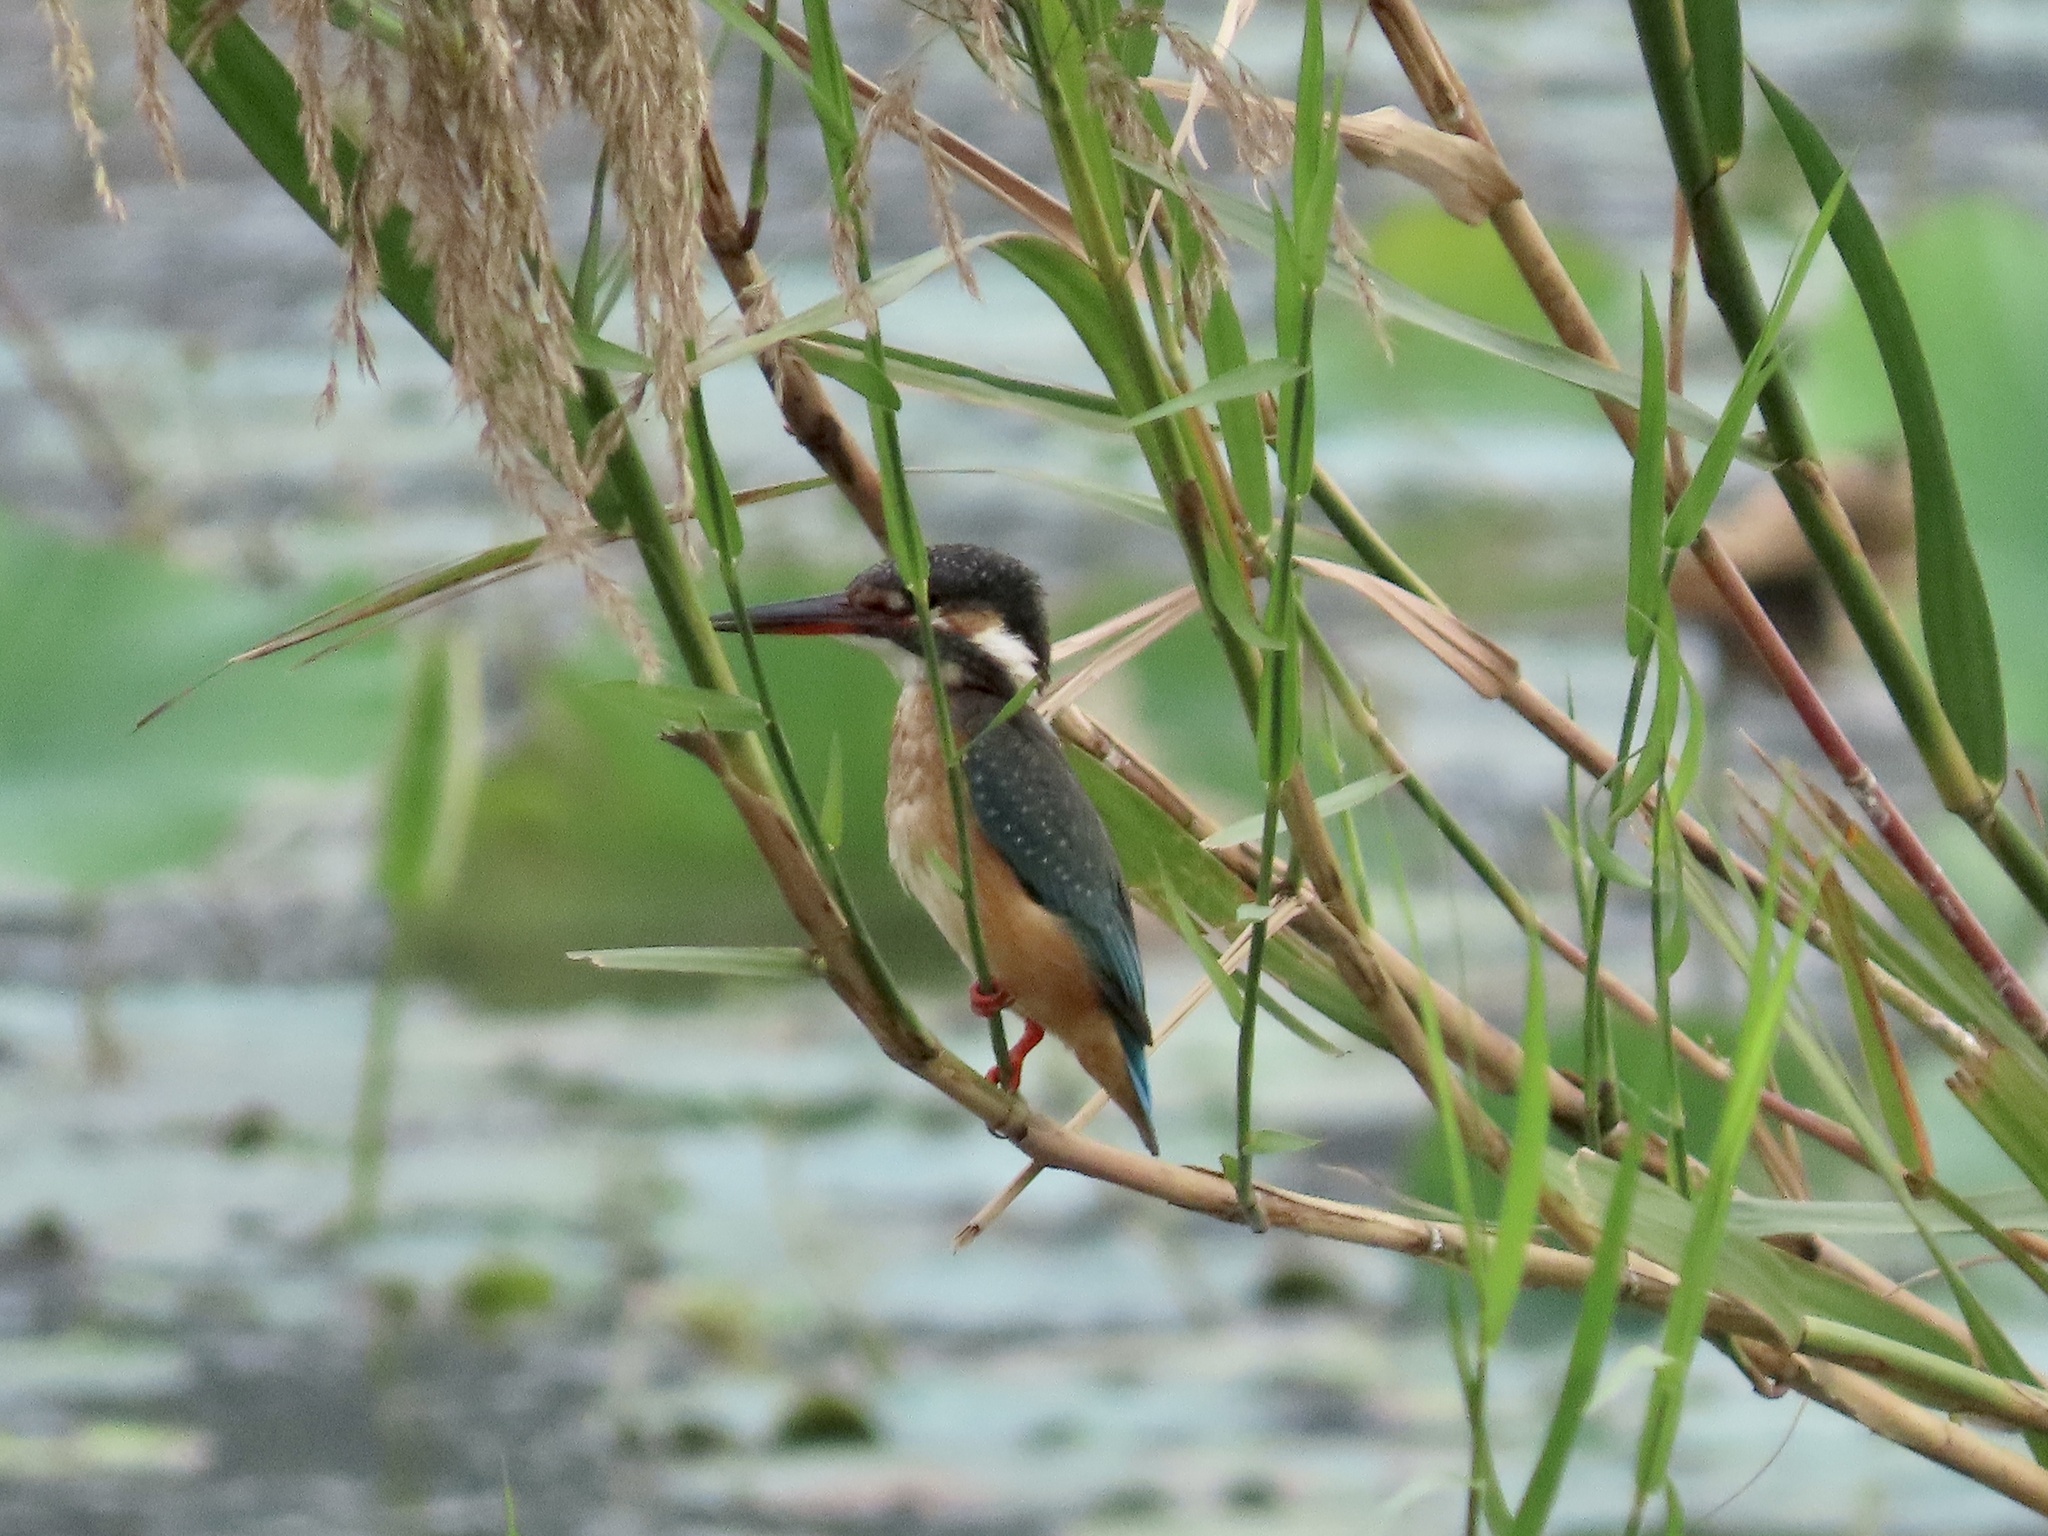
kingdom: Animalia
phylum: Chordata
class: Aves
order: Coraciiformes
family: Alcedinidae
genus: Alcedo
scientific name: Alcedo atthis
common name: Common kingfisher
